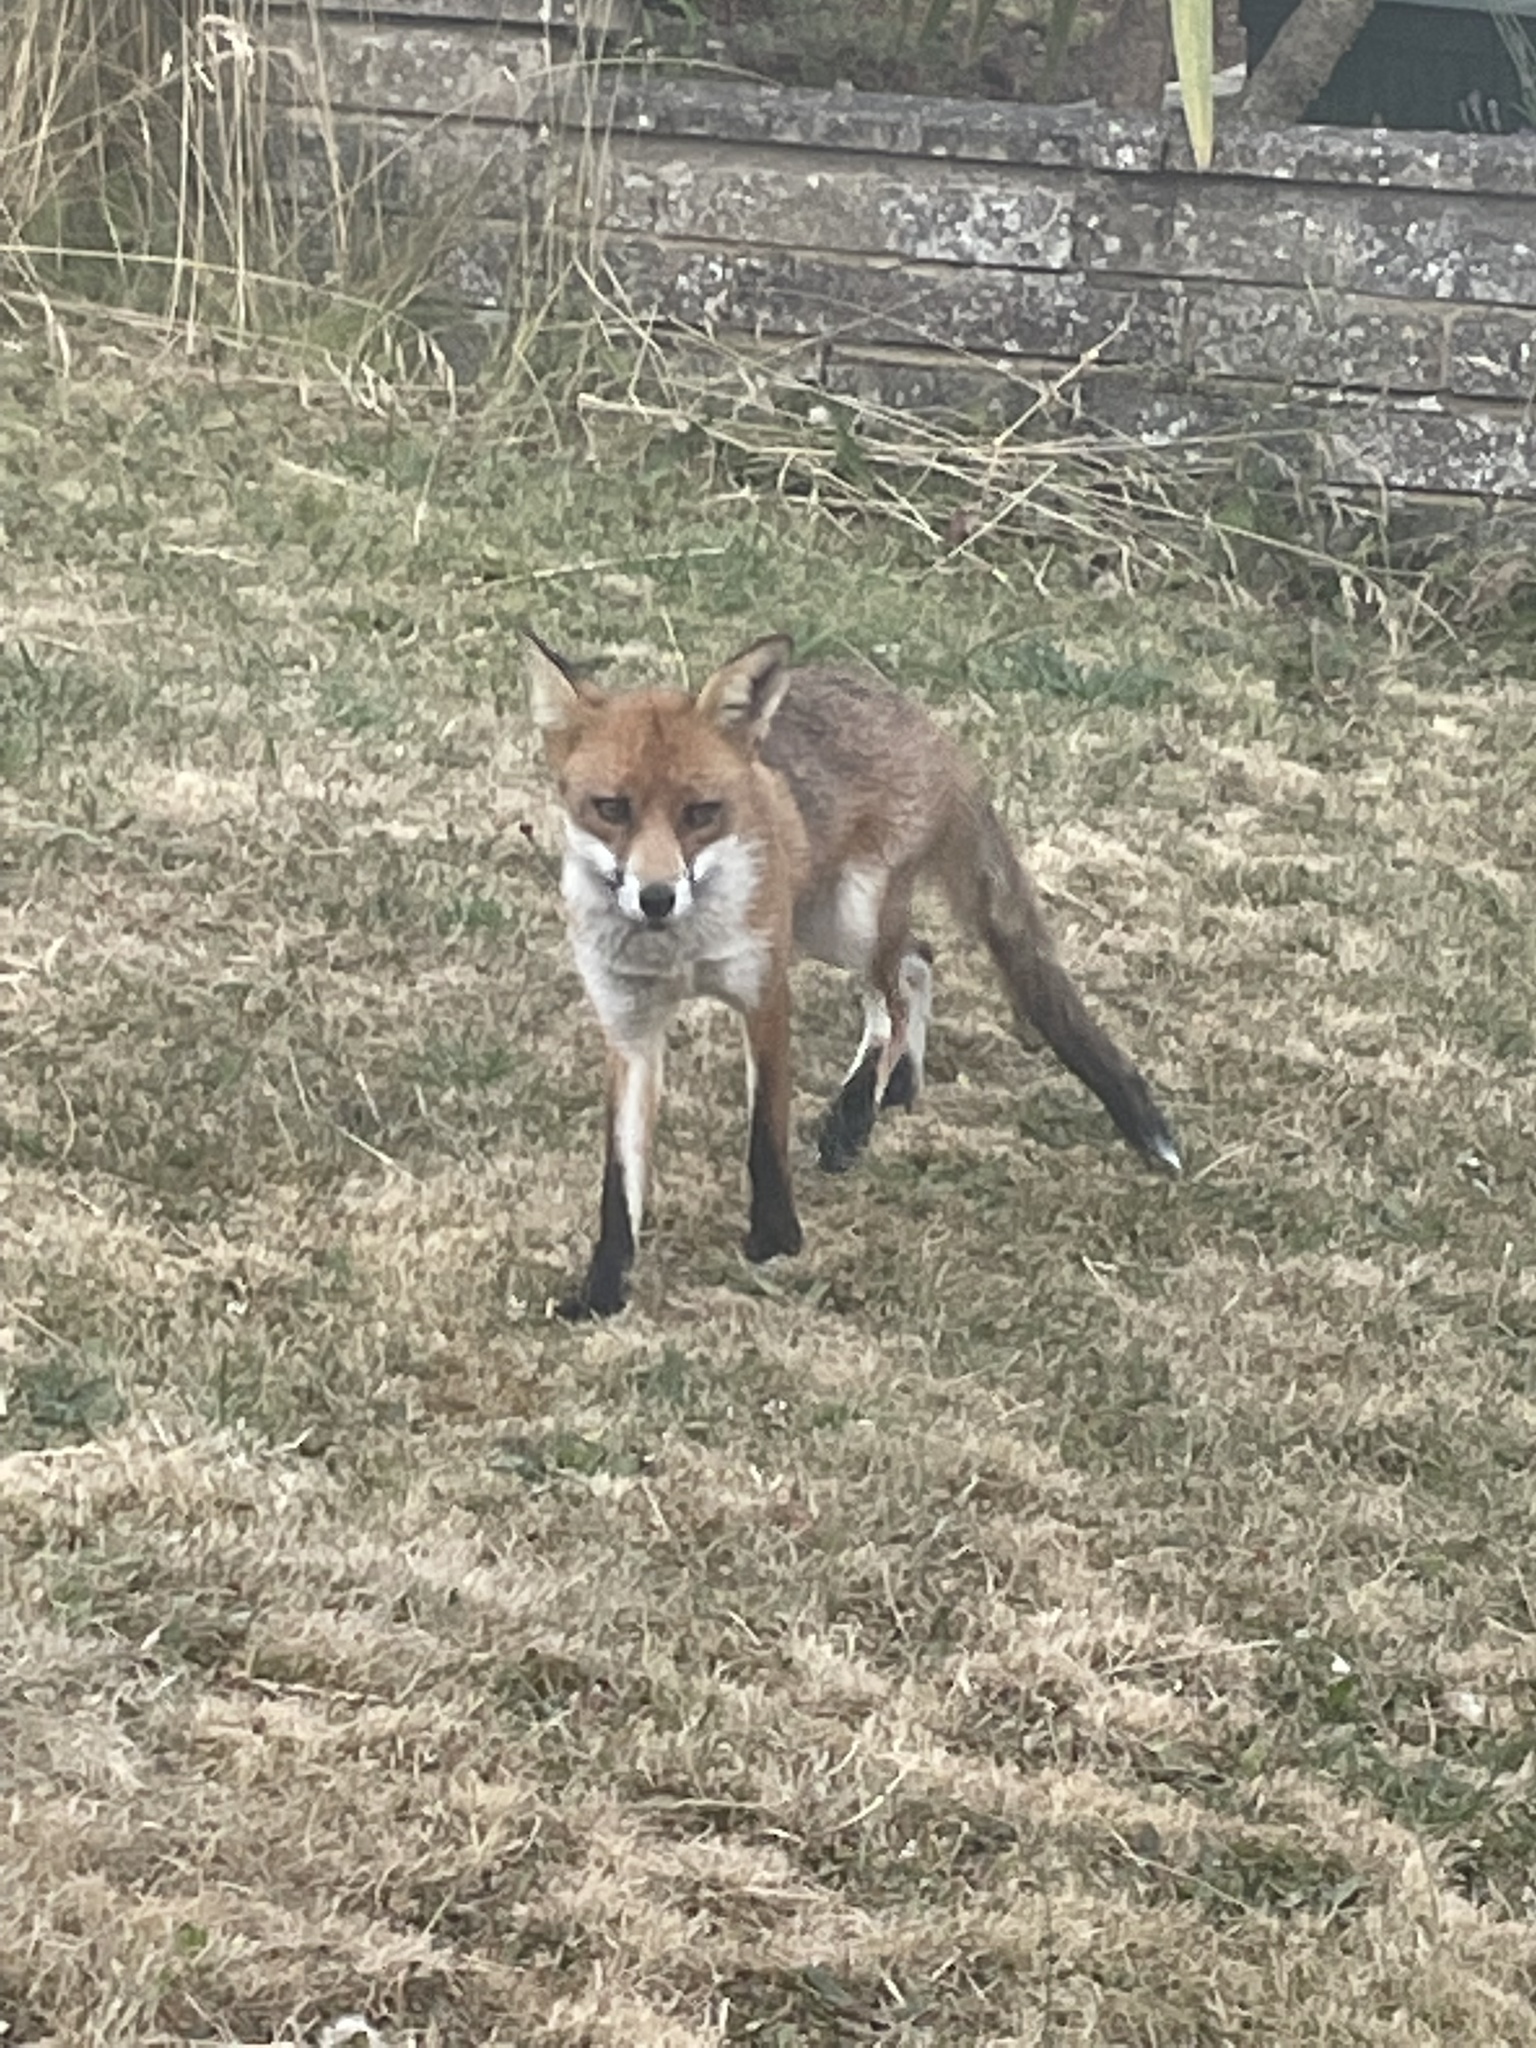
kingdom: Animalia
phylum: Chordata
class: Mammalia
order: Carnivora
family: Canidae
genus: Vulpes
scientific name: Vulpes vulpes
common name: Red fox
